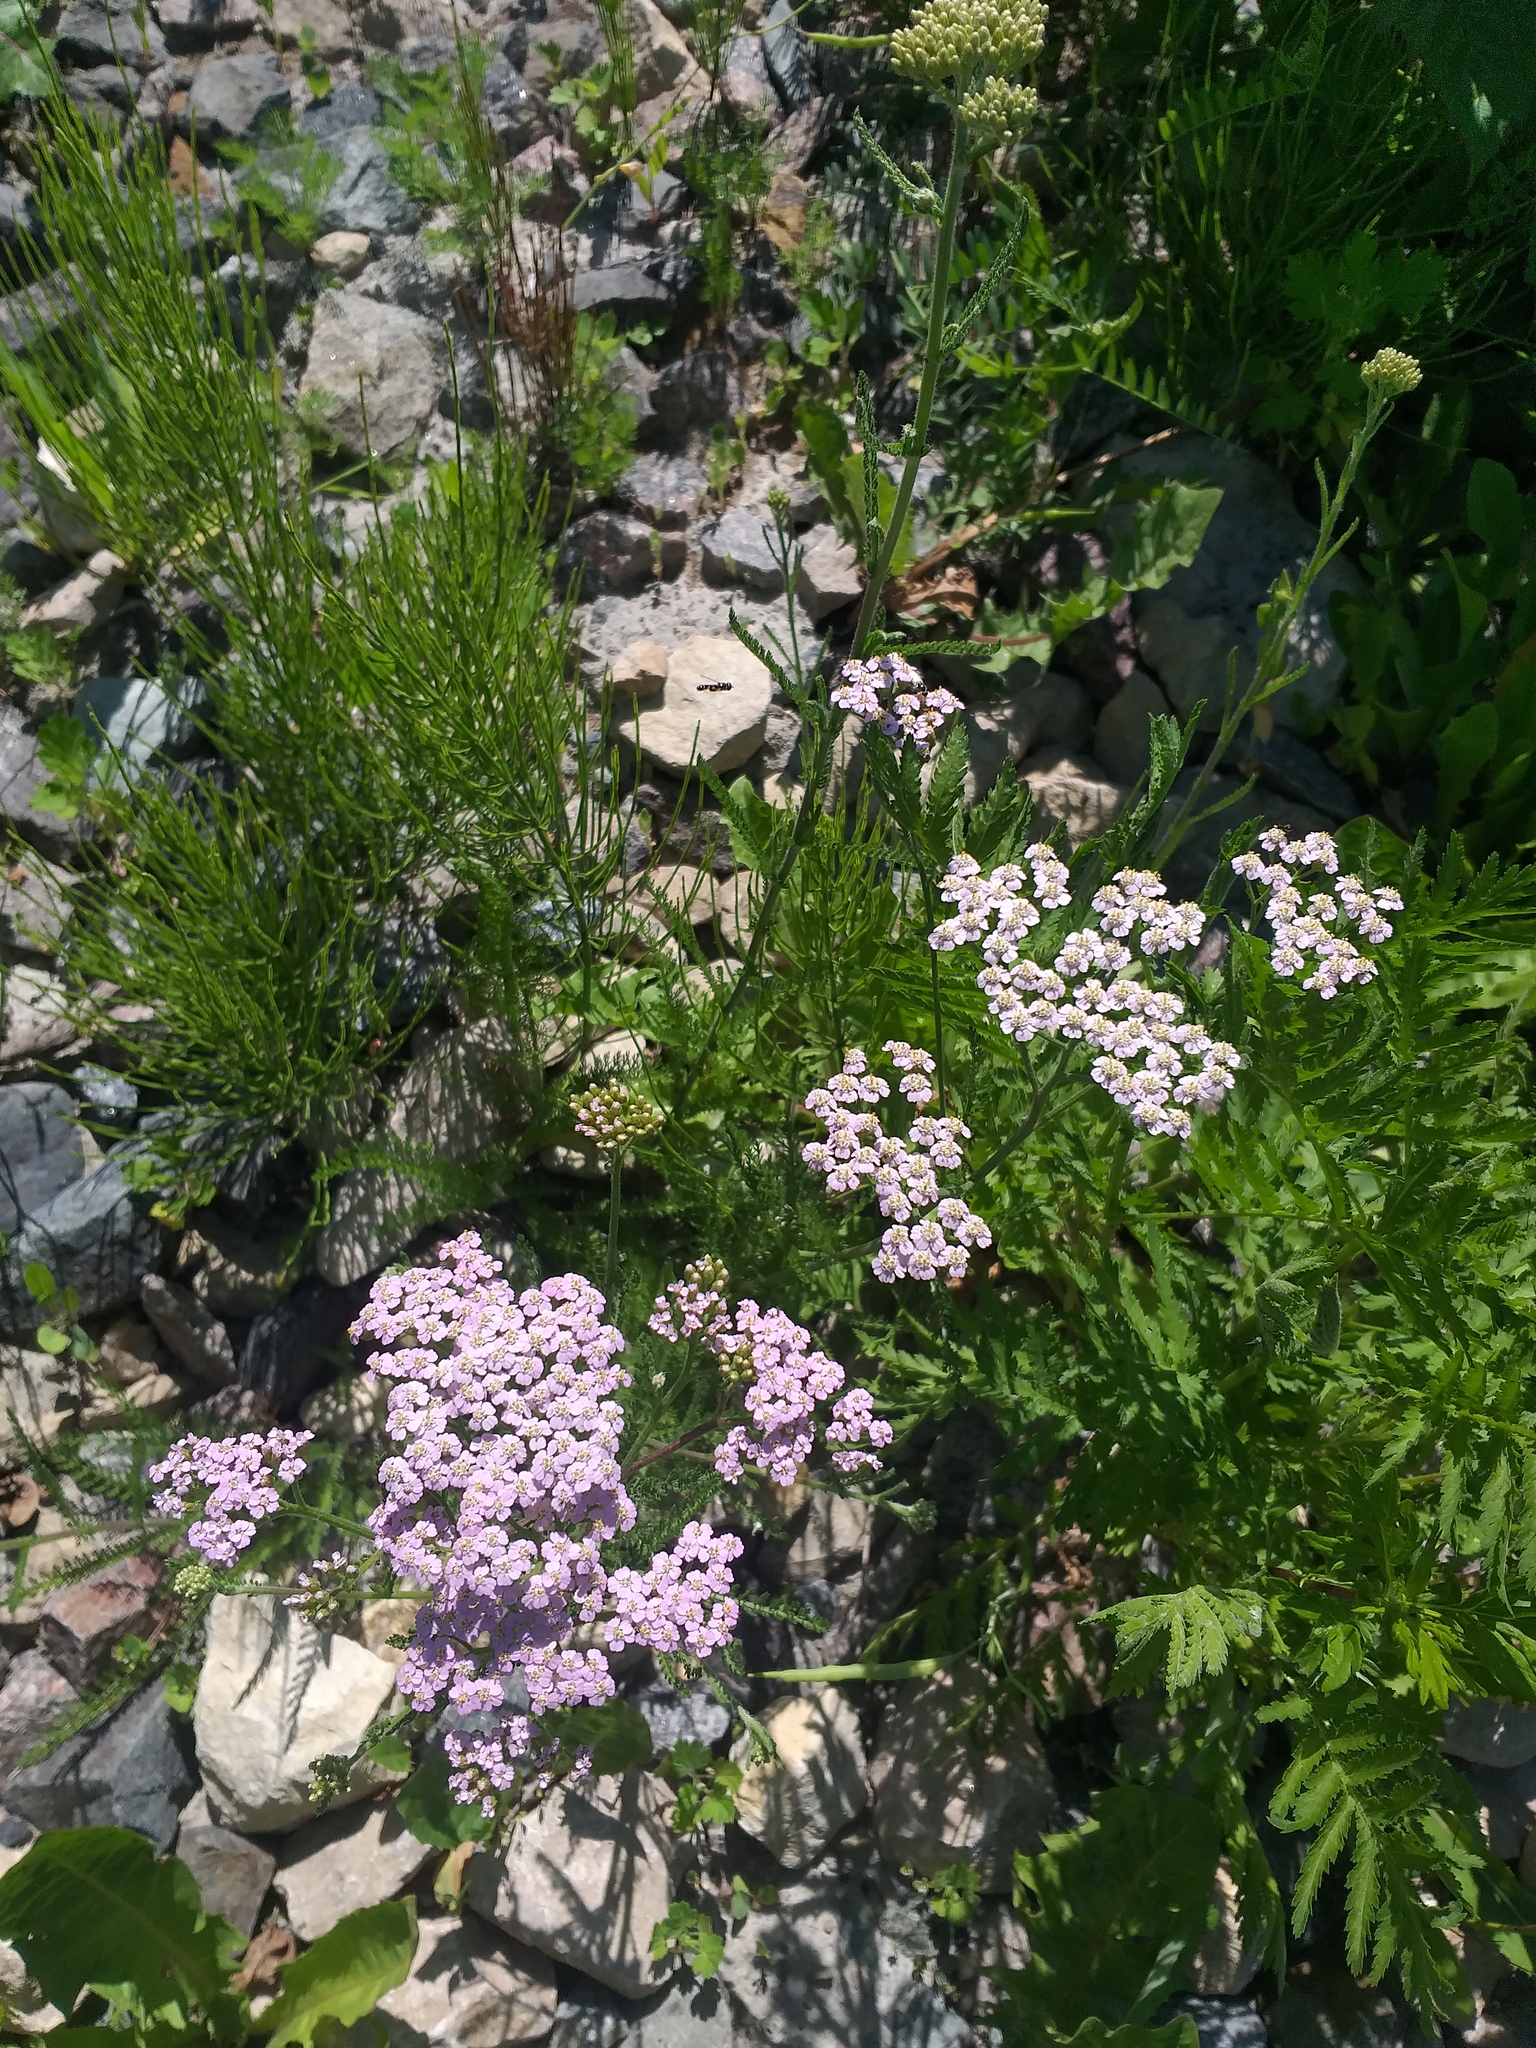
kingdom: Plantae
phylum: Tracheophyta
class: Magnoliopsida
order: Asterales
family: Asteraceae
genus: Achillea
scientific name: Achillea millefolium
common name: Yarrow
